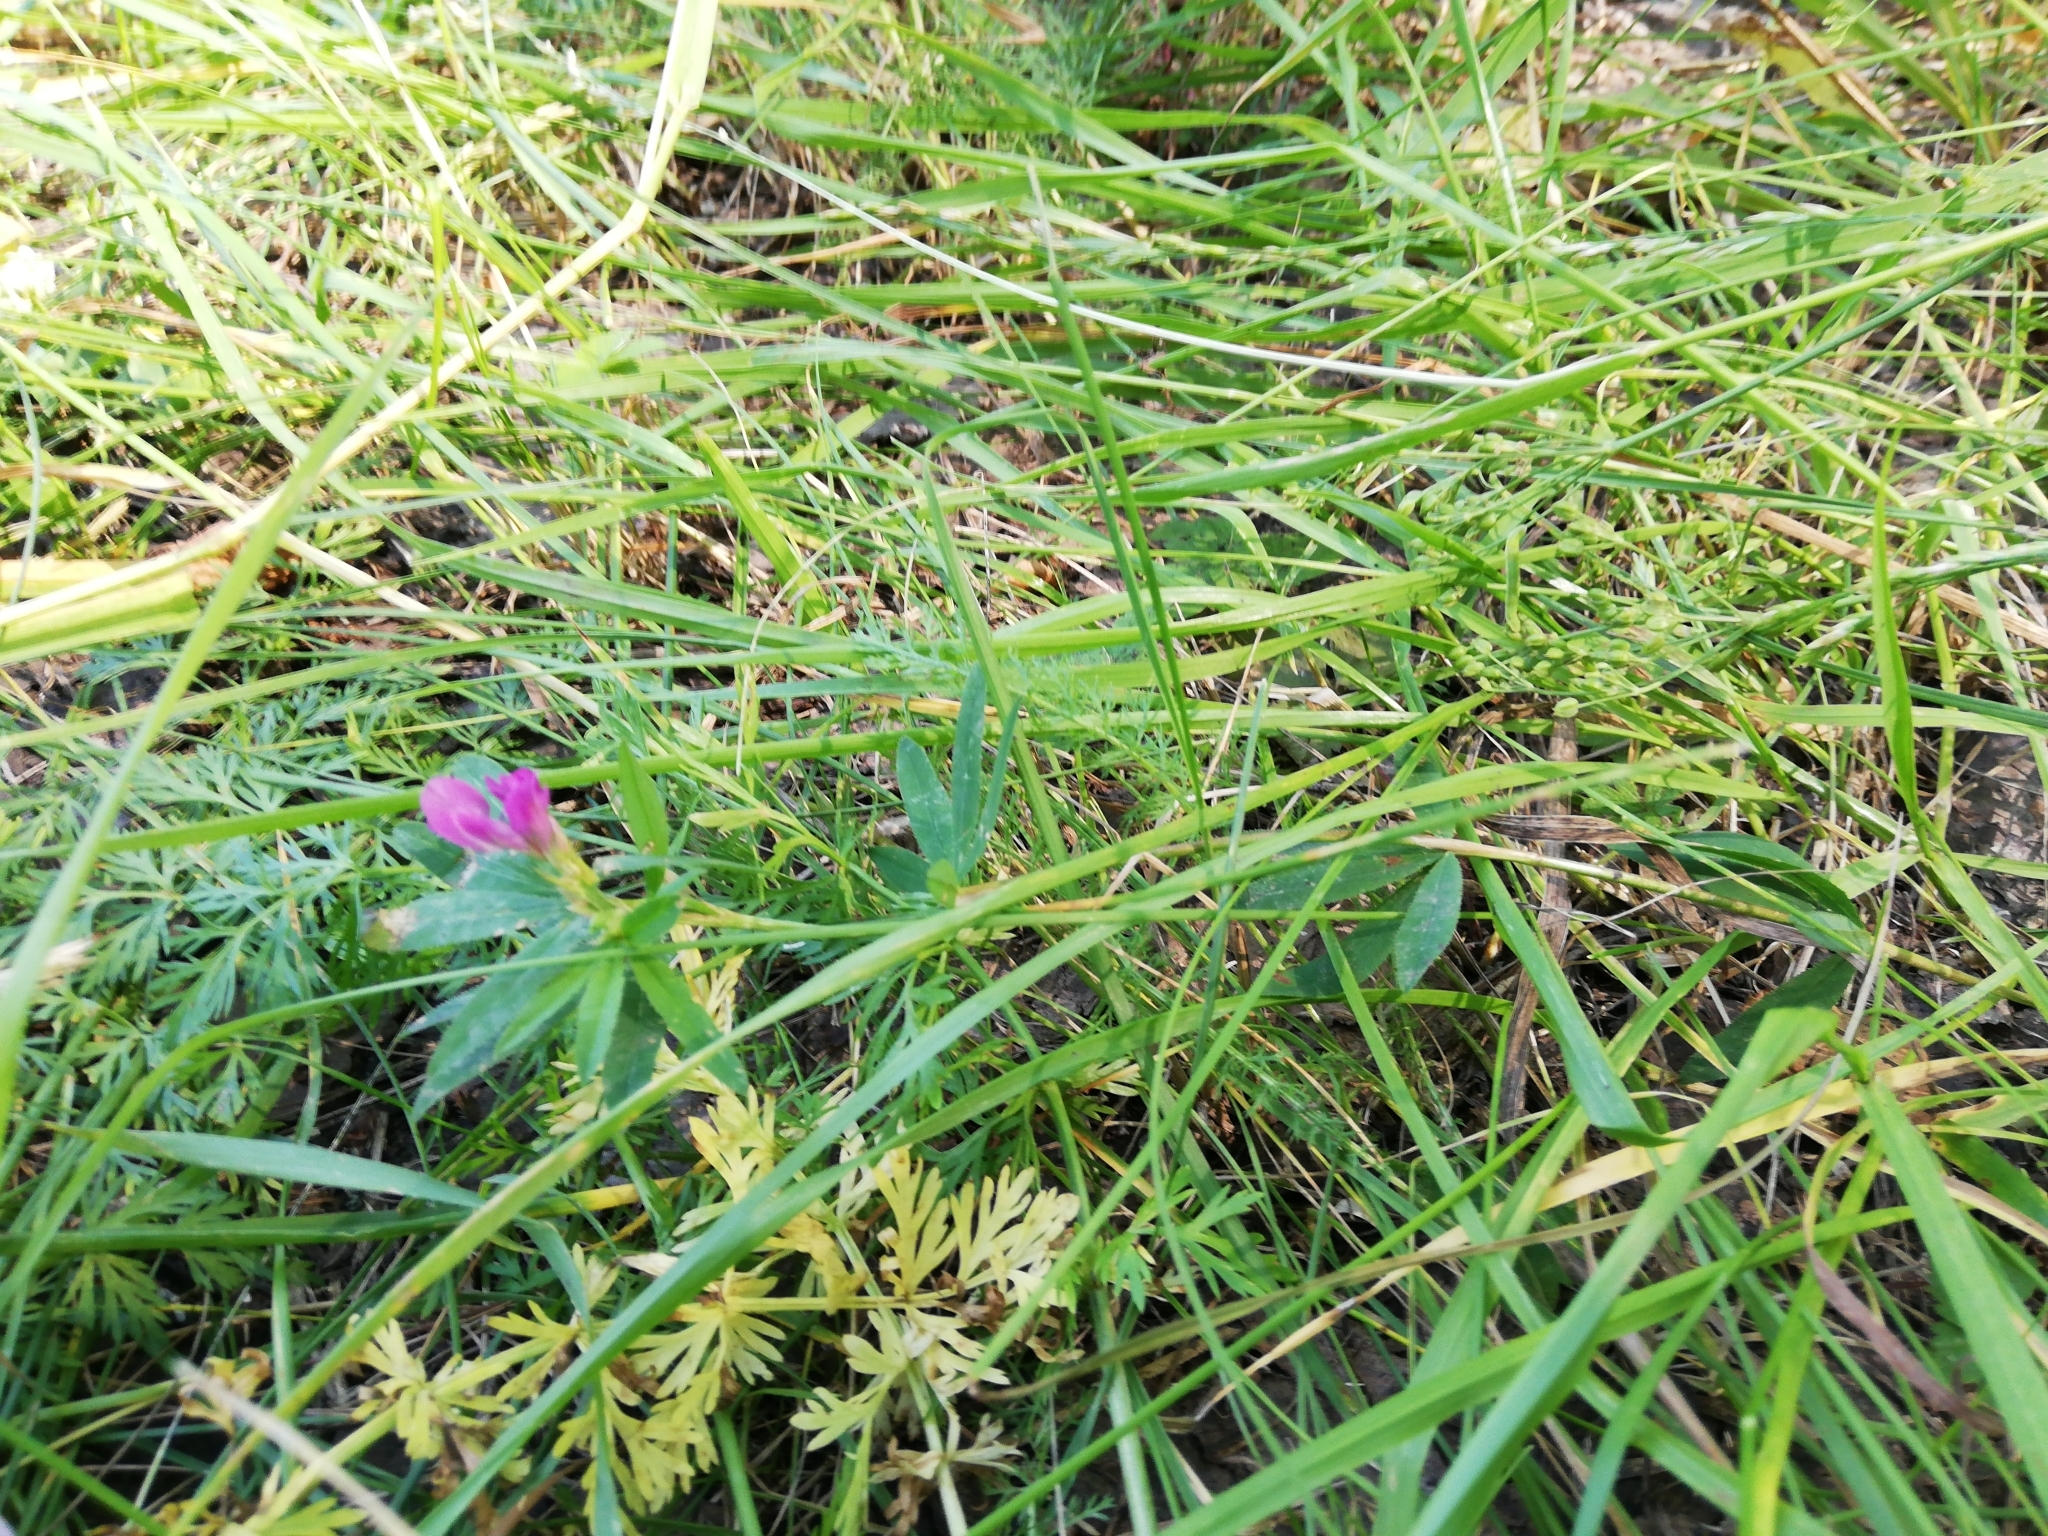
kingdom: Plantae
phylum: Tracheophyta
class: Magnoliopsida
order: Fabales
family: Fabaceae
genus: Trifolium
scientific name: Trifolium lupinaster
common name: Lupine clover
